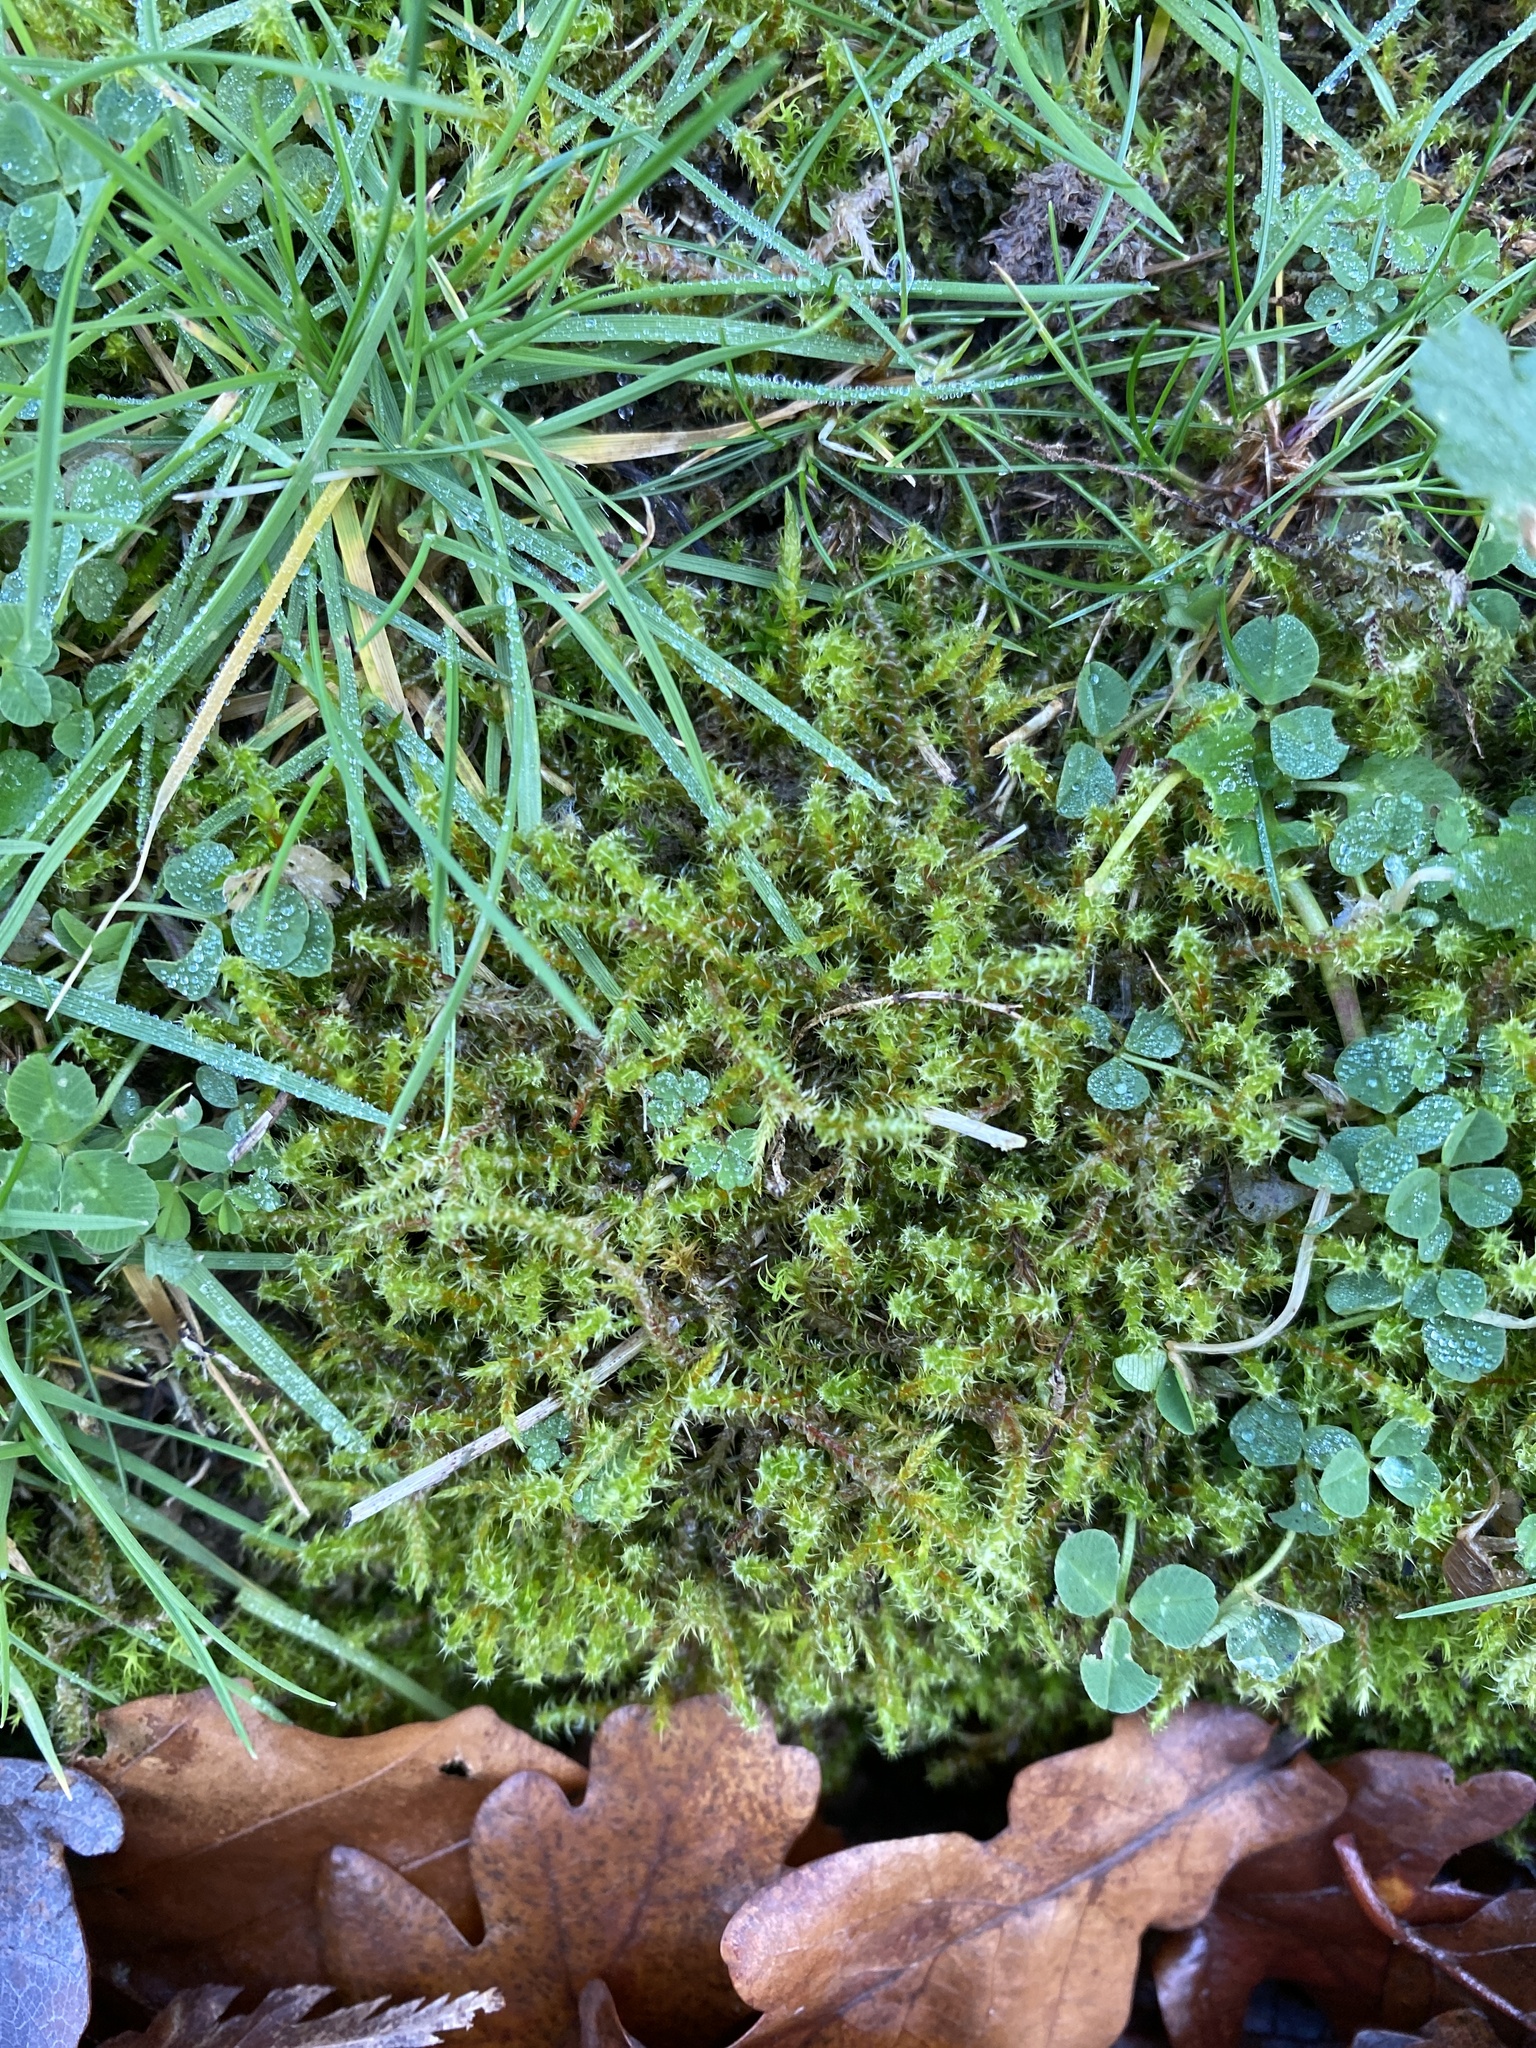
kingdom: Plantae
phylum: Bryophyta
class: Bryopsida
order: Hypnales
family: Hylocomiaceae
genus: Rhytidiadelphus
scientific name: Rhytidiadelphus squarrosus
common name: Springy turf-moss
